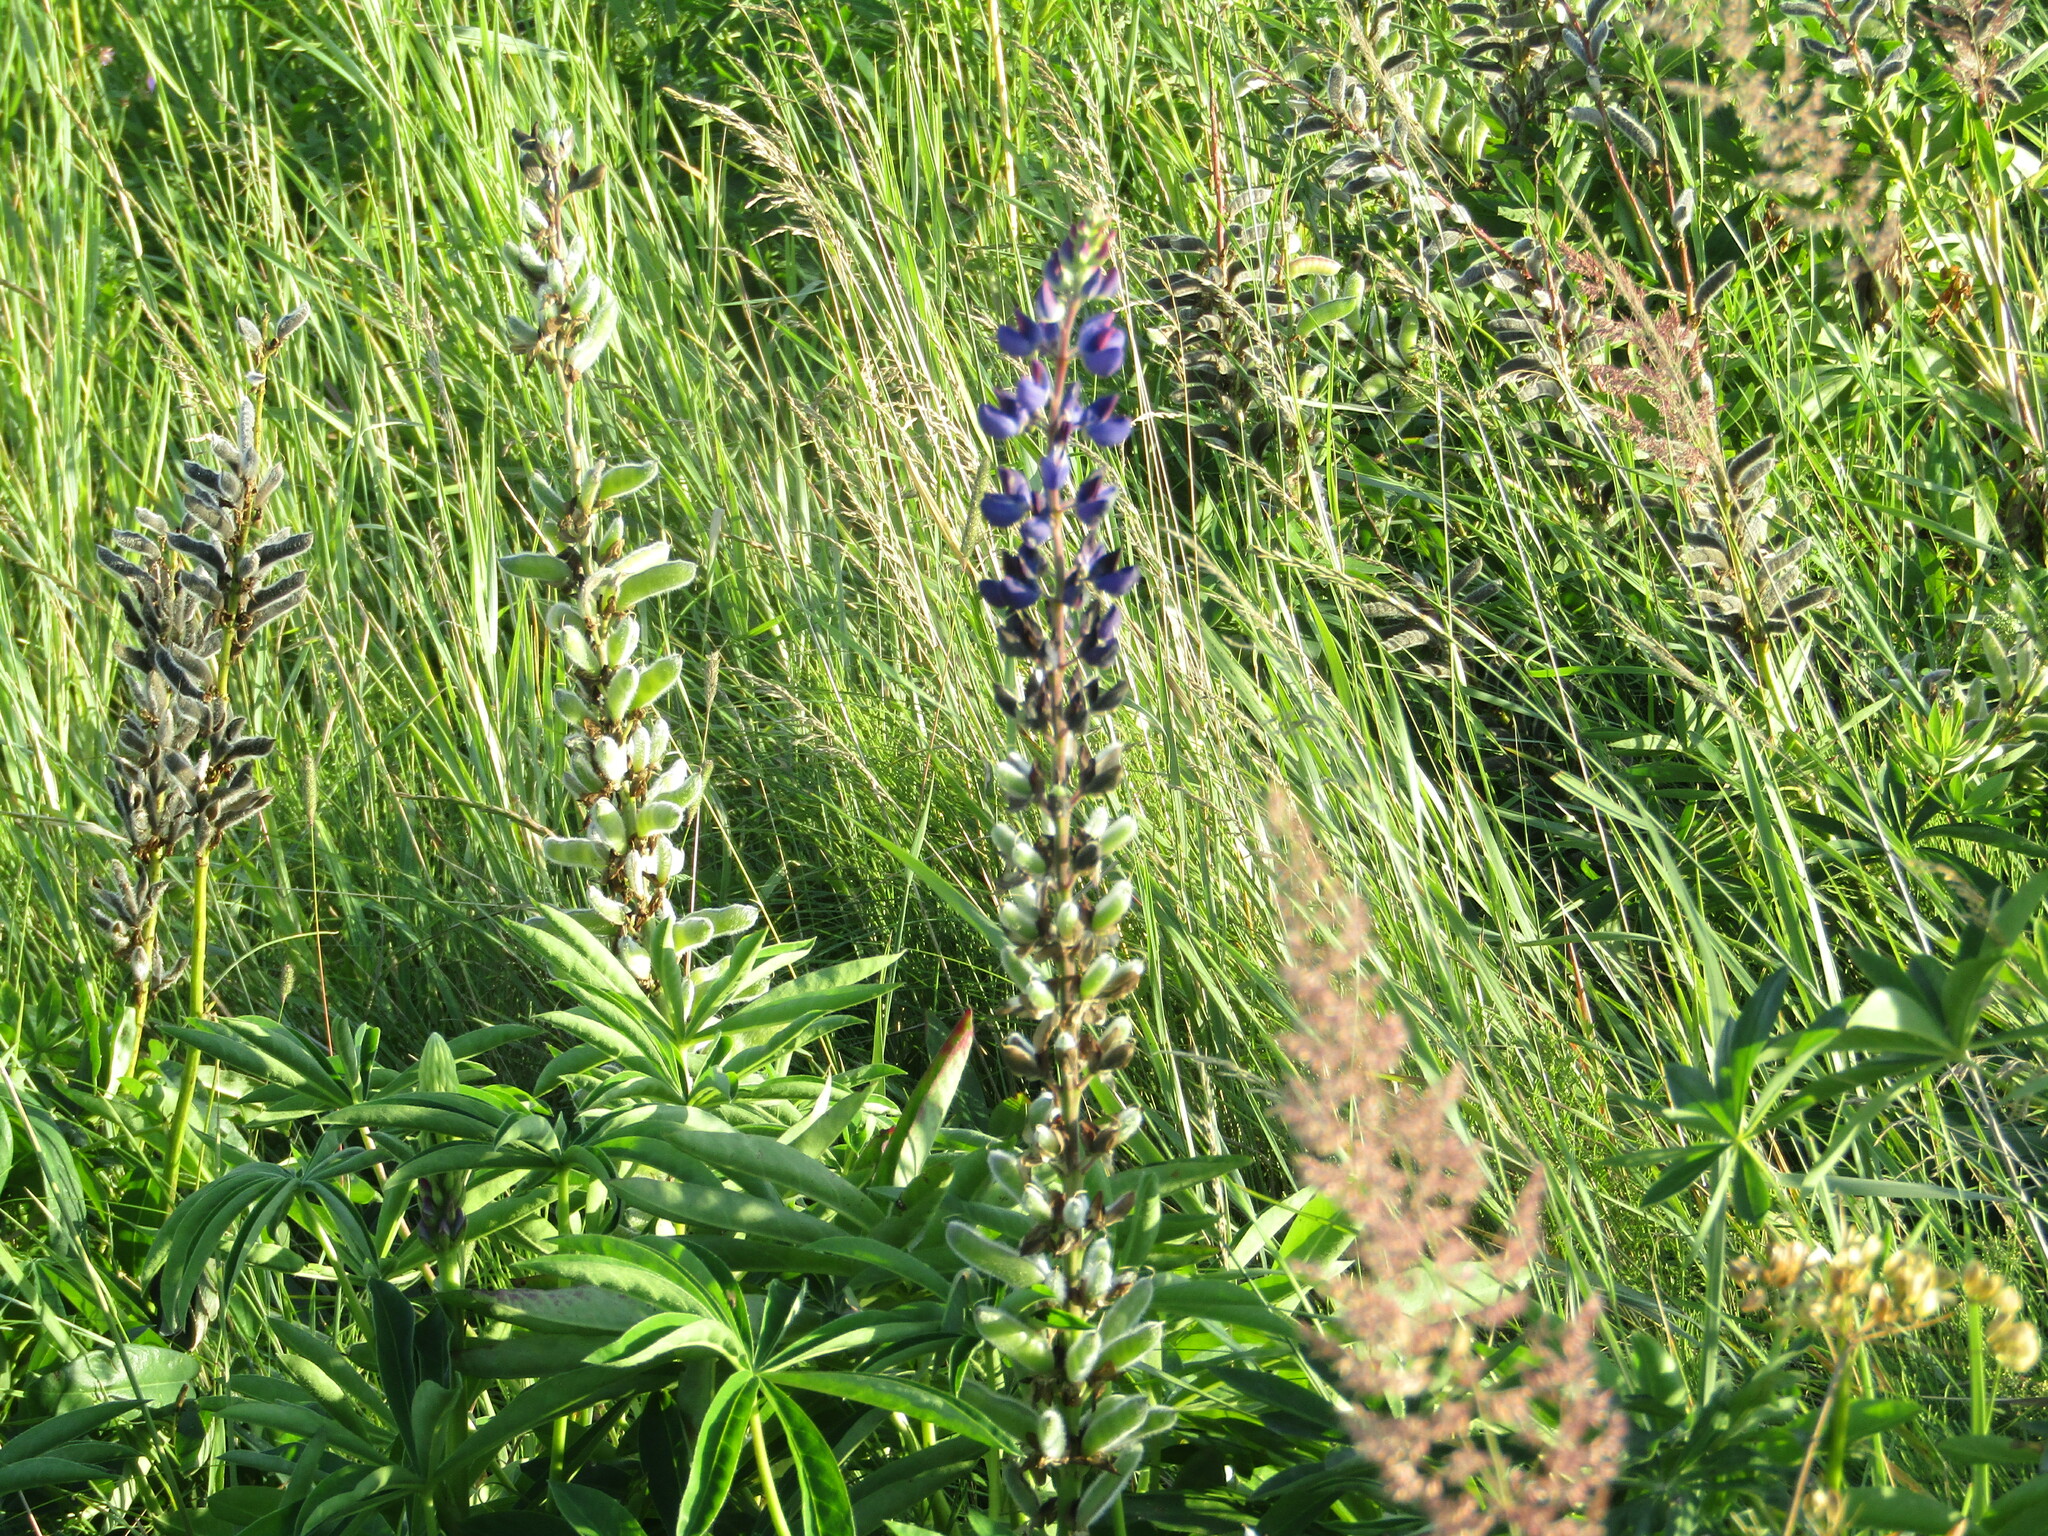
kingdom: Plantae
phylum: Tracheophyta
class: Magnoliopsida
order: Fabales
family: Fabaceae
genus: Lupinus
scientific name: Lupinus polyphyllus
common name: Garden lupin
